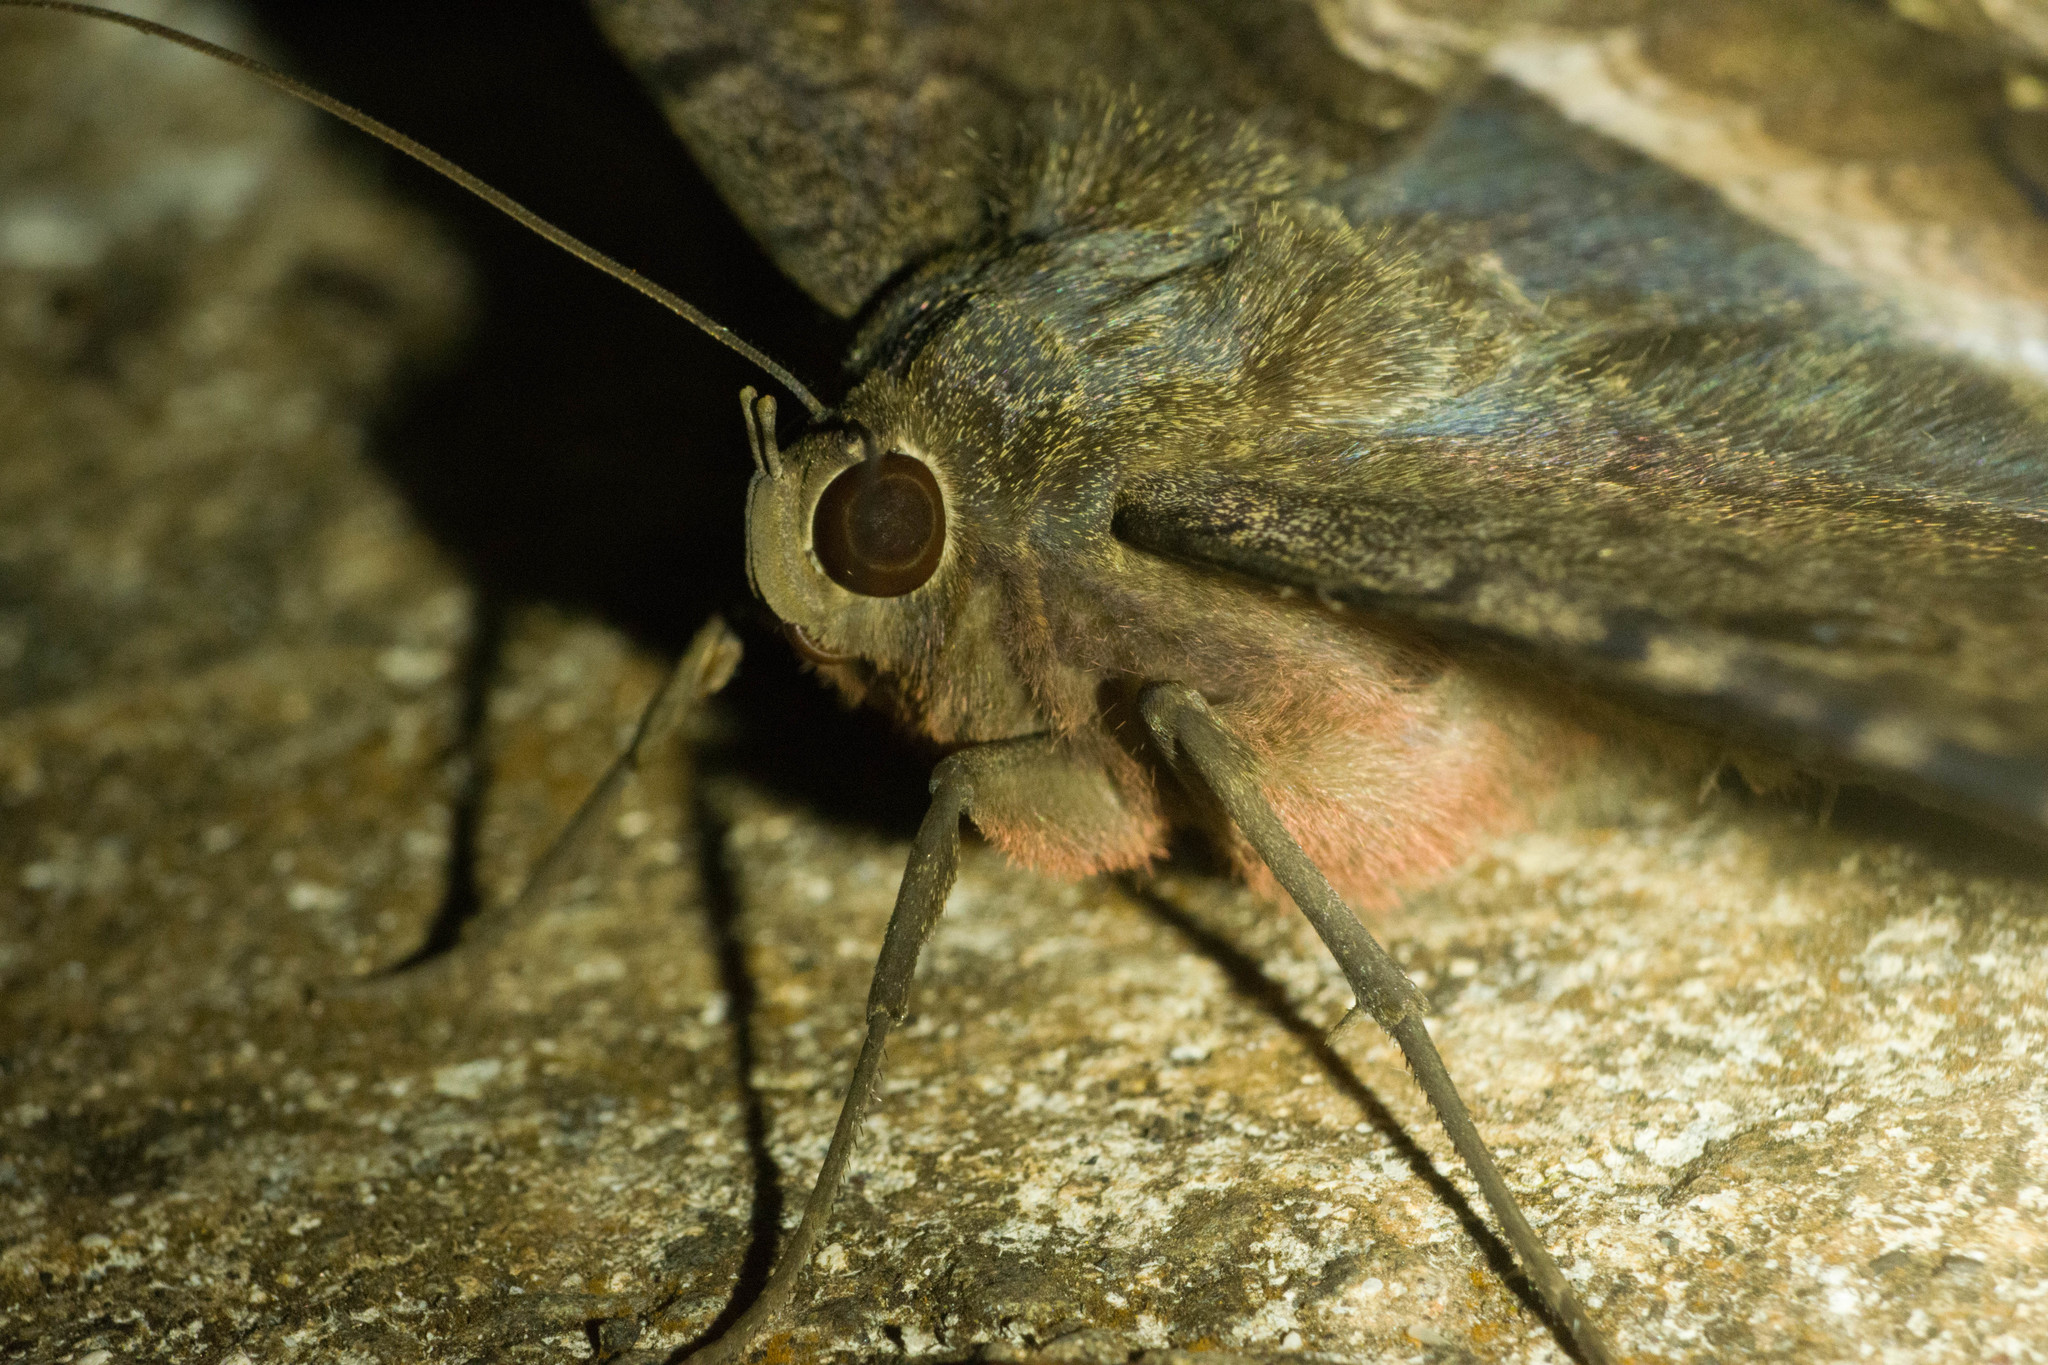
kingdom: Animalia
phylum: Arthropoda
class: Insecta
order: Lepidoptera
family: Erebidae
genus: Ascalapha
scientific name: Ascalapha odorata
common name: Black witch
